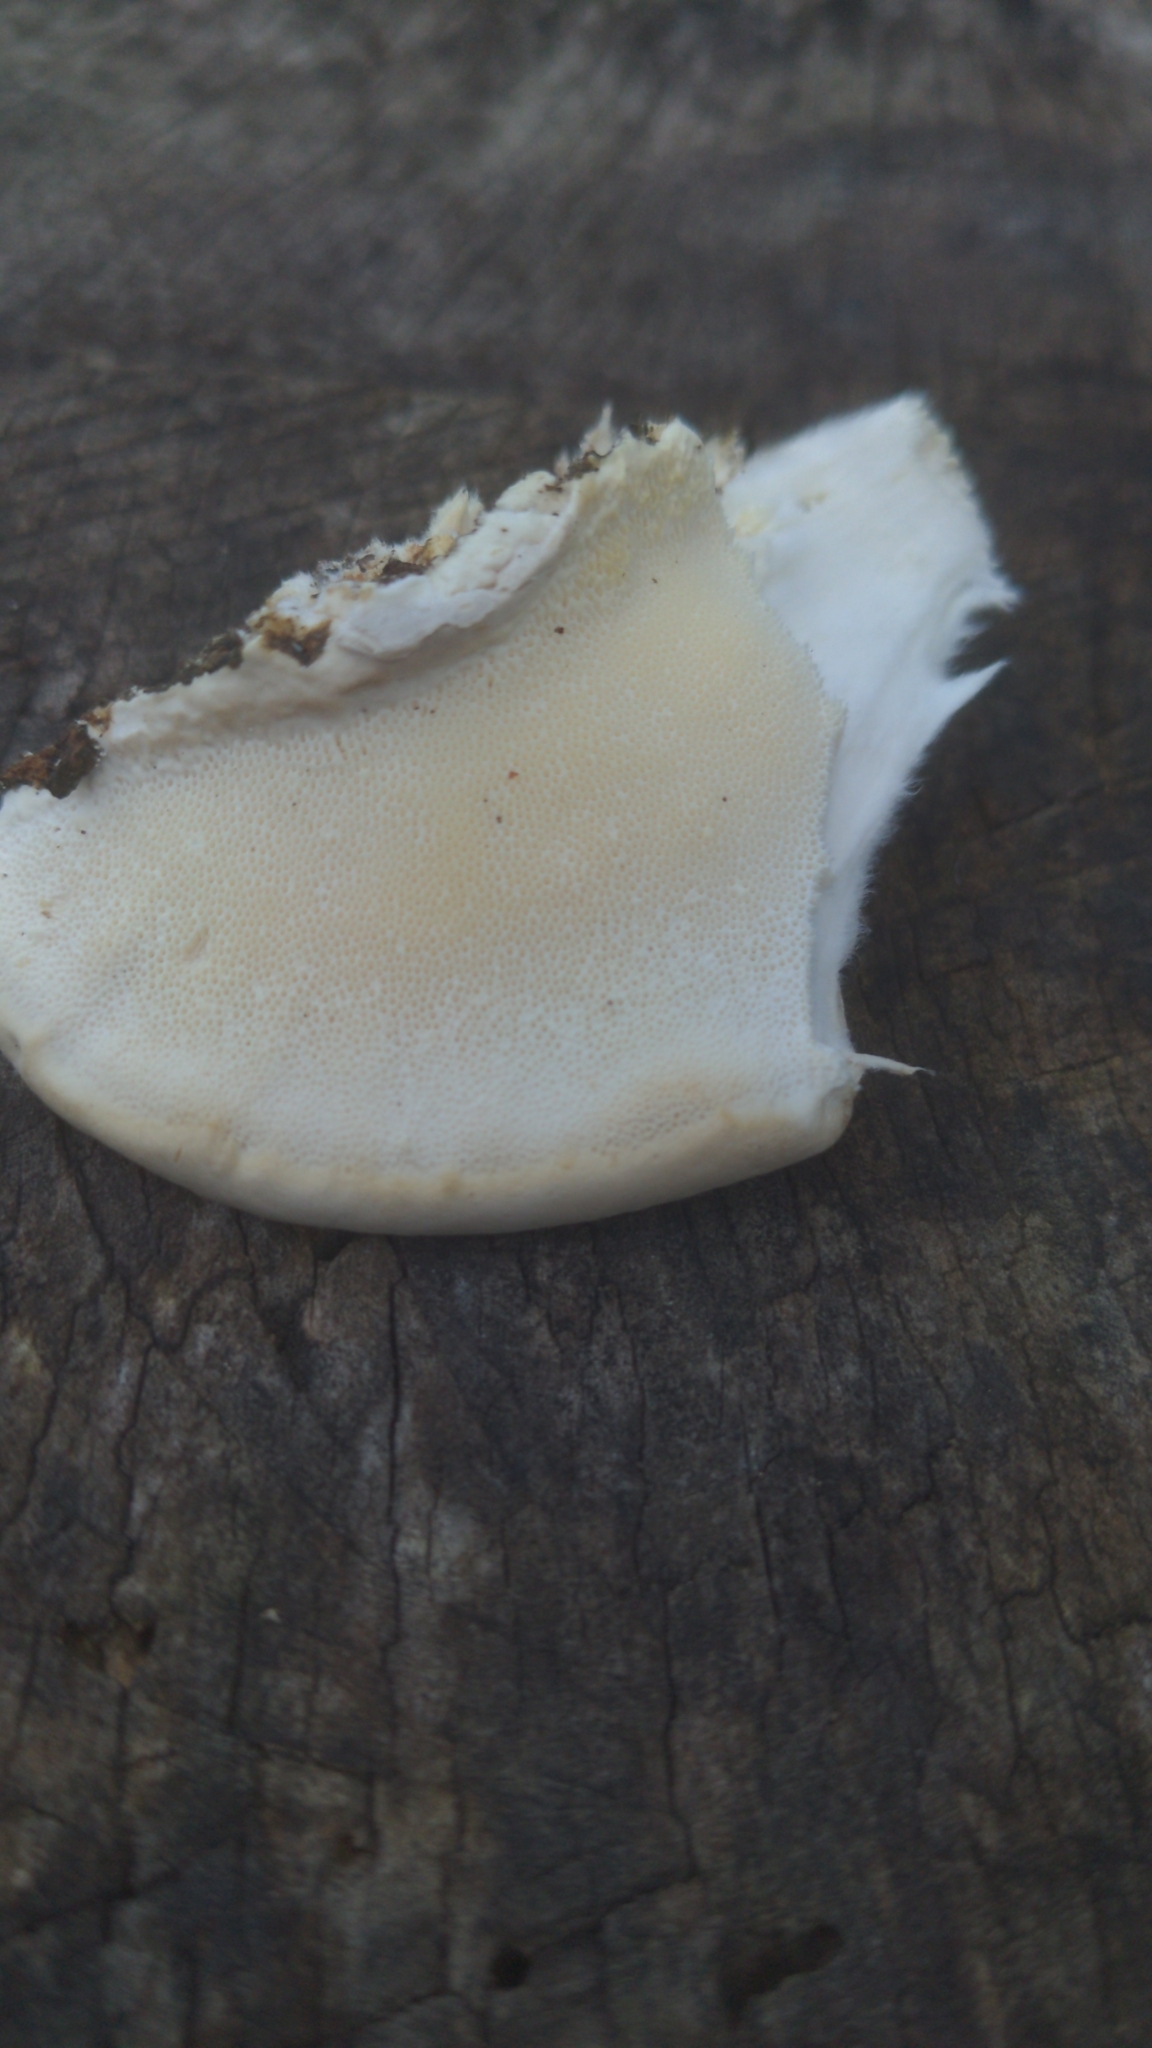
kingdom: Fungi
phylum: Basidiomycota
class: Agaricomycetes
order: Polyporales
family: Polyporaceae
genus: Trametes
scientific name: Trametes lactinea
